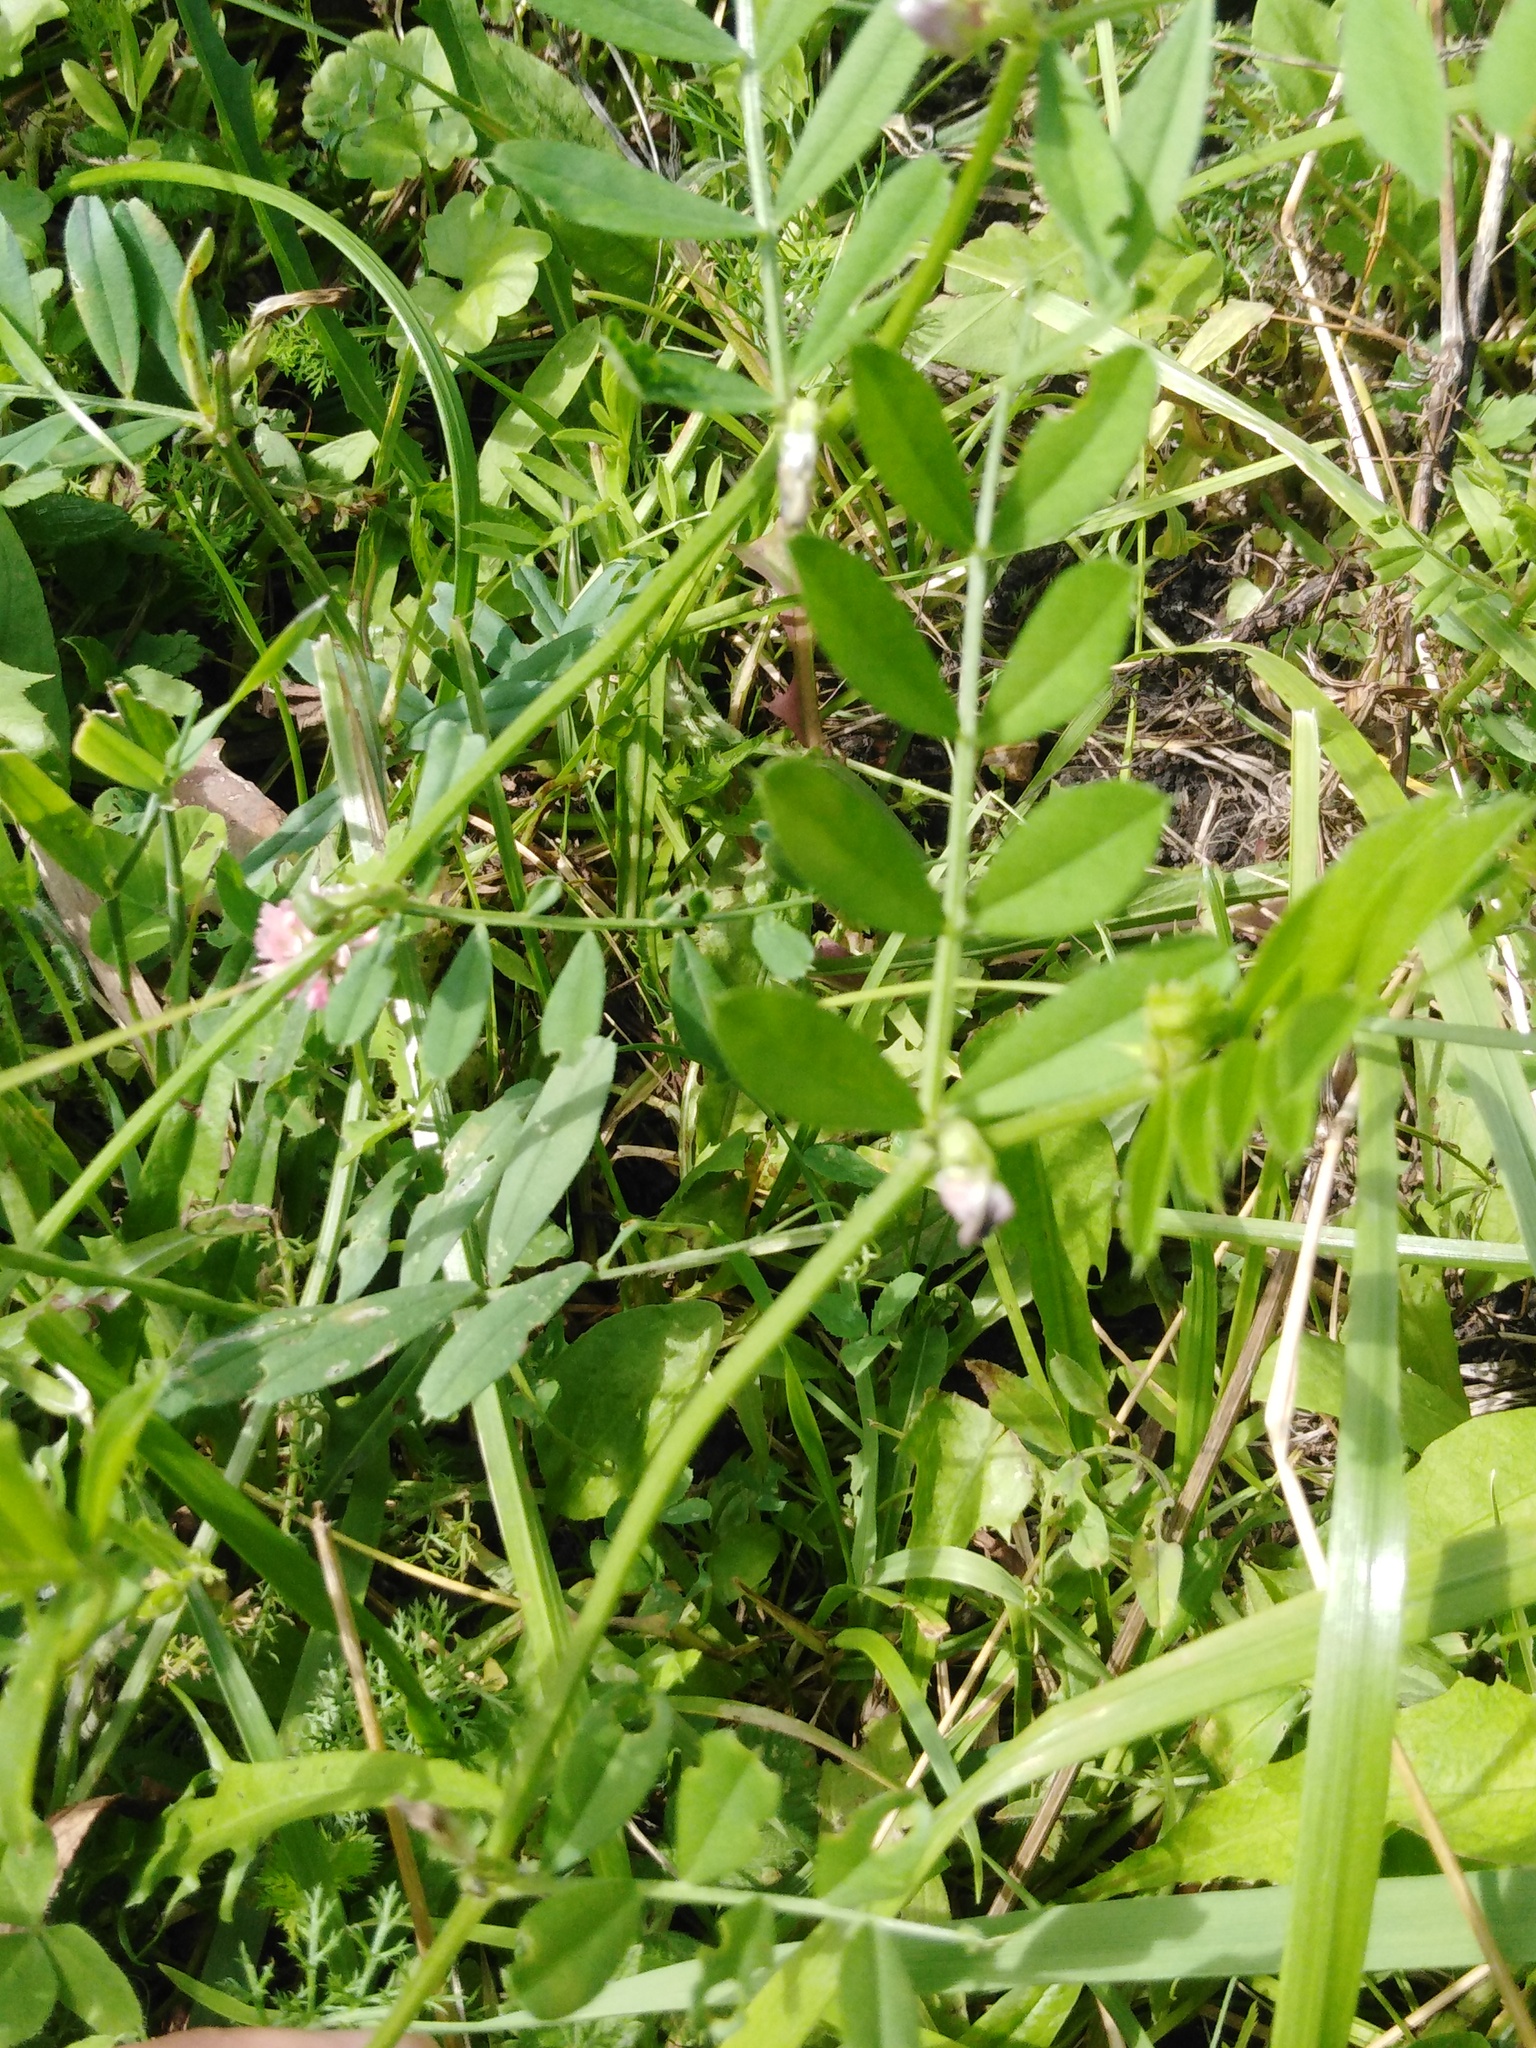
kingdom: Plantae
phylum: Tracheophyta
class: Magnoliopsida
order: Fabales
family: Fabaceae
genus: Vicia
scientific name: Vicia sativa
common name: Garden vetch
